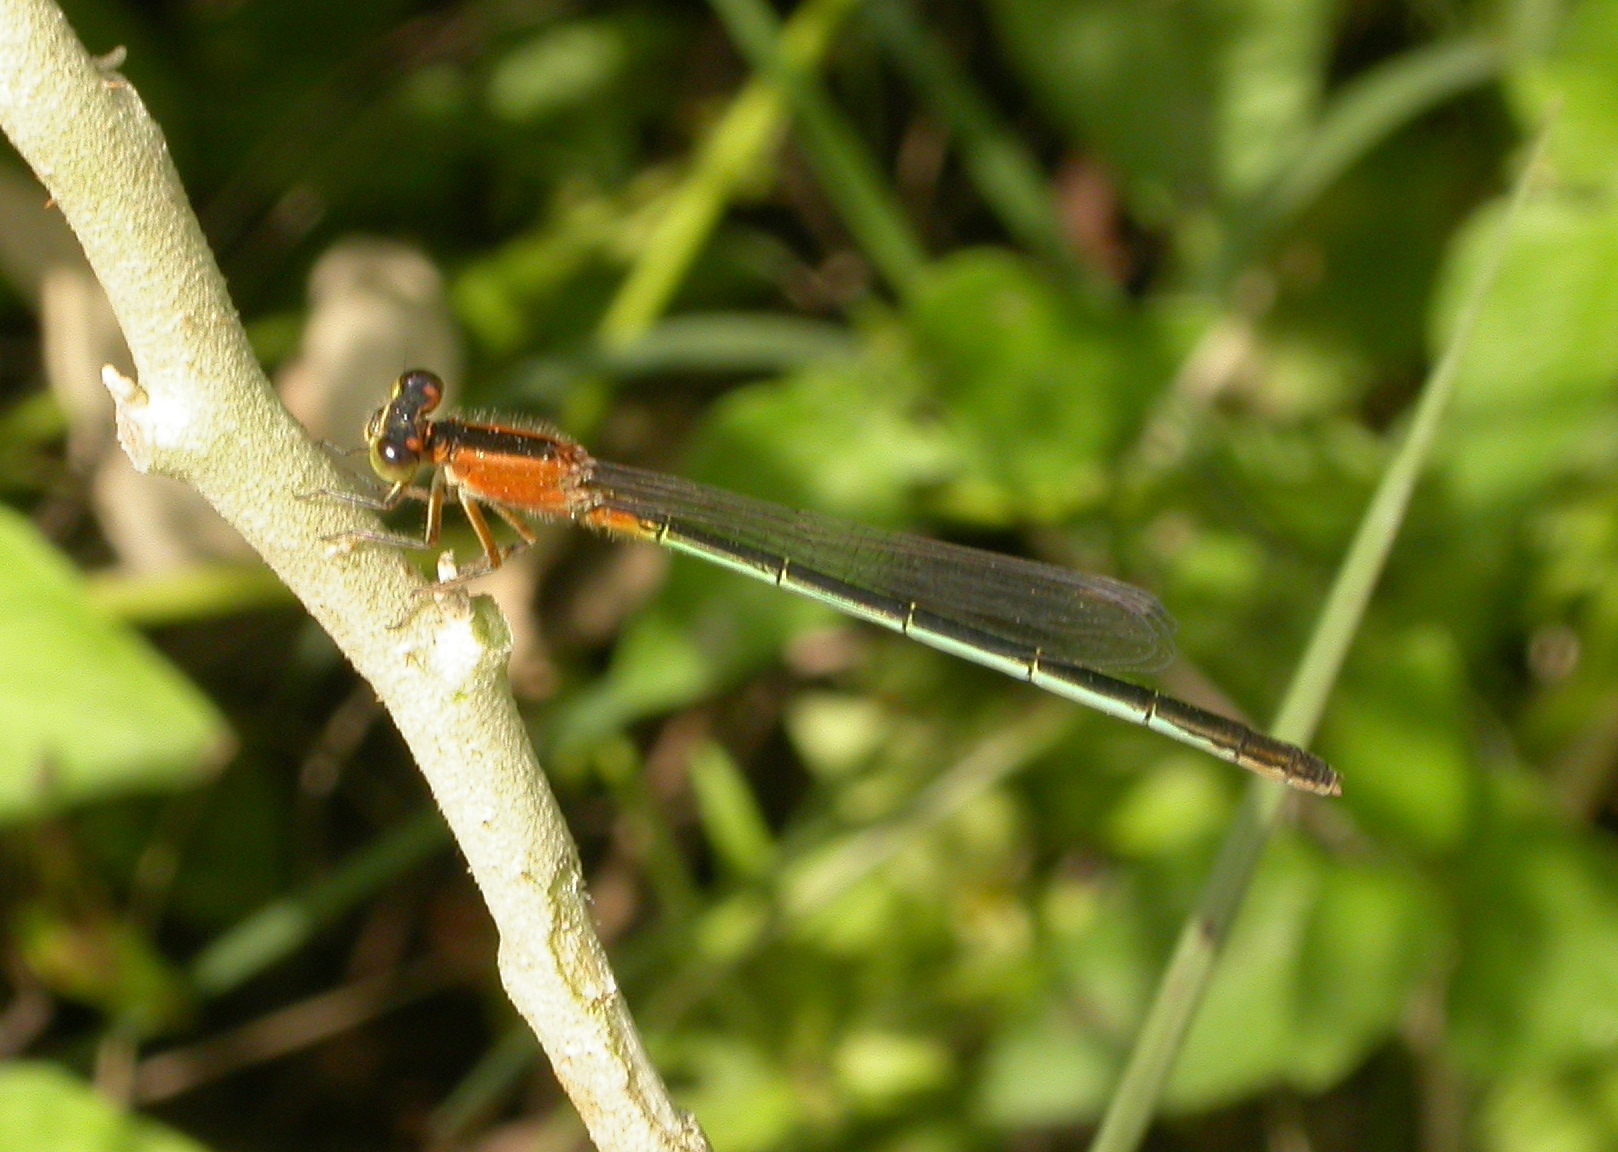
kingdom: Animalia
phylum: Arthropoda
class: Insecta
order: Odonata
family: Coenagrionidae
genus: Ischnura
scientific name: Ischnura ramburii
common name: Rambur's forktail
